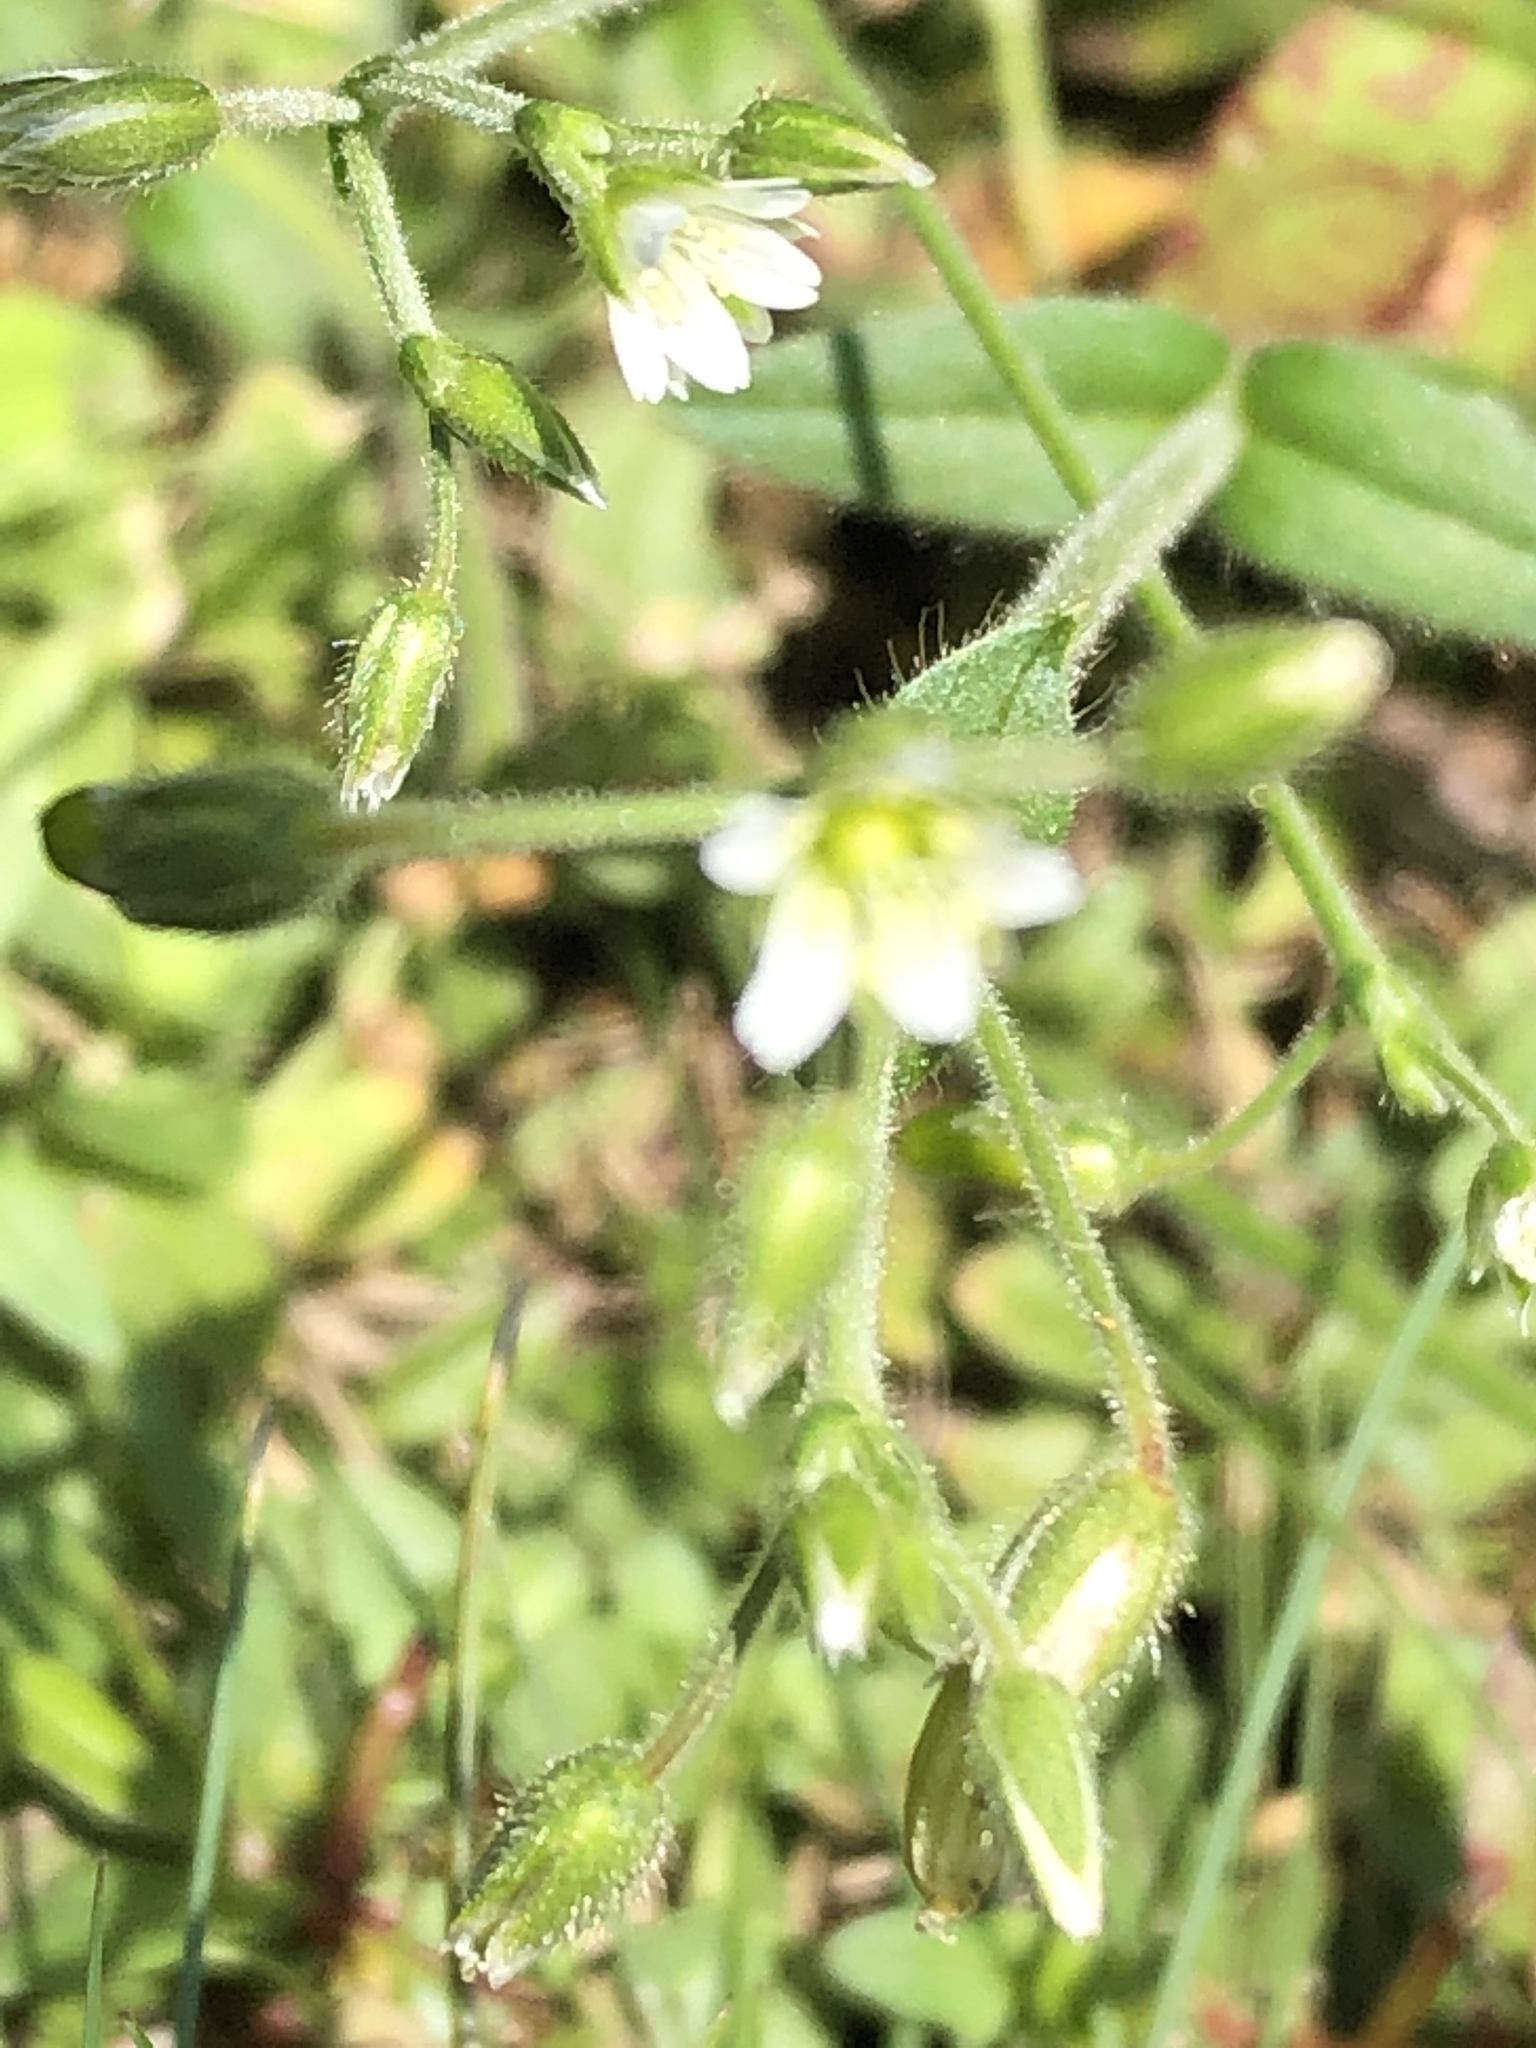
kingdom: Plantae
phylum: Tracheophyta
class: Magnoliopsida
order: Caryophyllales
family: Caryophyllaceae
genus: Cerastium
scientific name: Cerastium fontanum
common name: Common mouse-ear
